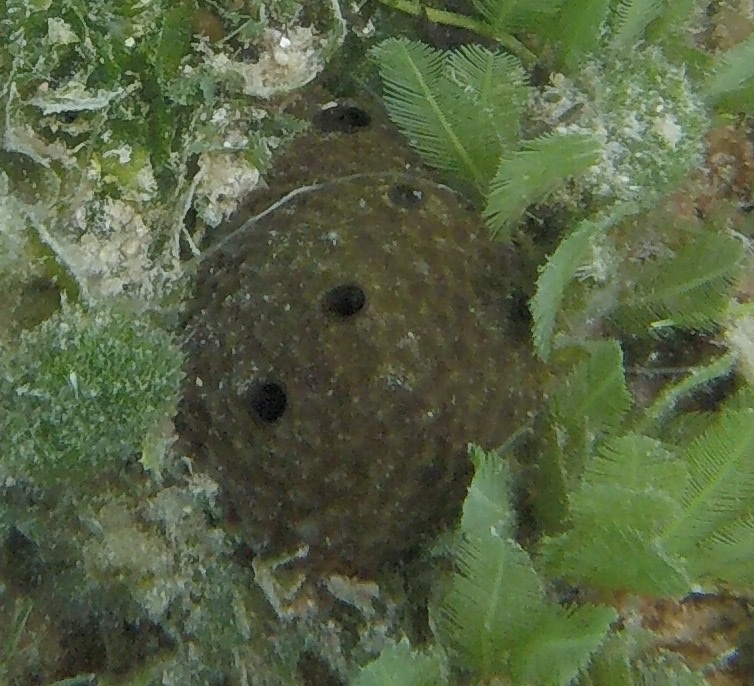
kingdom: Animalia
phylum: Porifera
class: Demospongiae
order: Dictyoceratida
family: Irciniidae
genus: Ircinia
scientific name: Ircinia felix
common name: Stinker sponge
